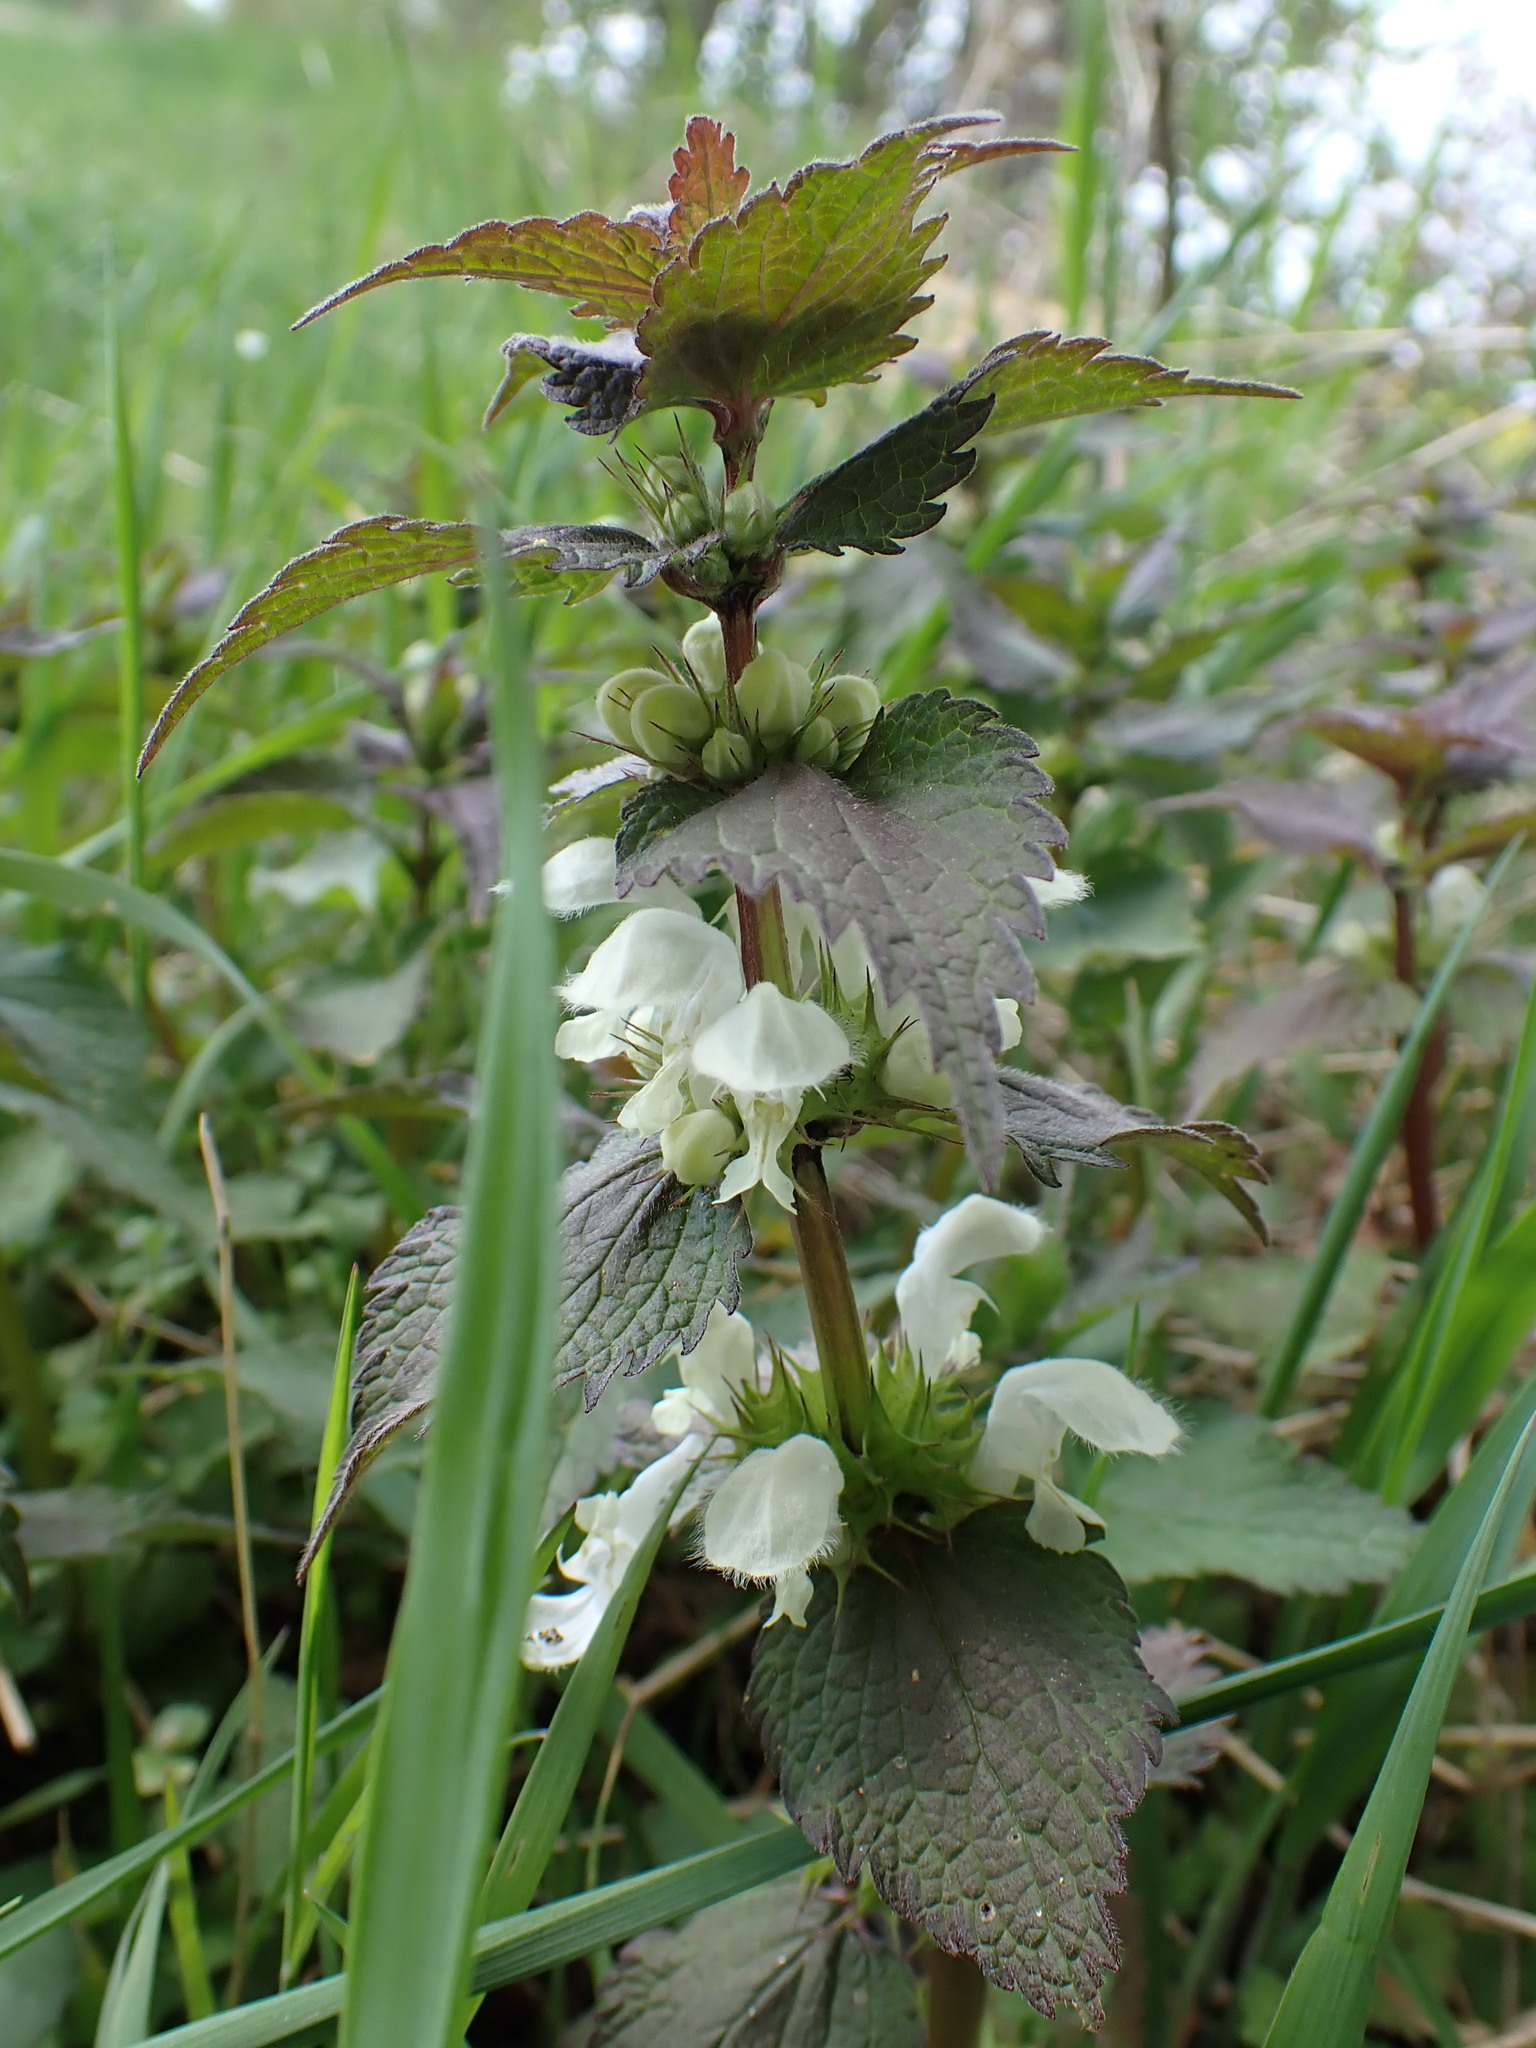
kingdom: Plantae
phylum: Tracheophyta
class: Magnoliopsida
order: Lamiales
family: Lamiaceae
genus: Lamium
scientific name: Lamium album
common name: White dead-nettle
